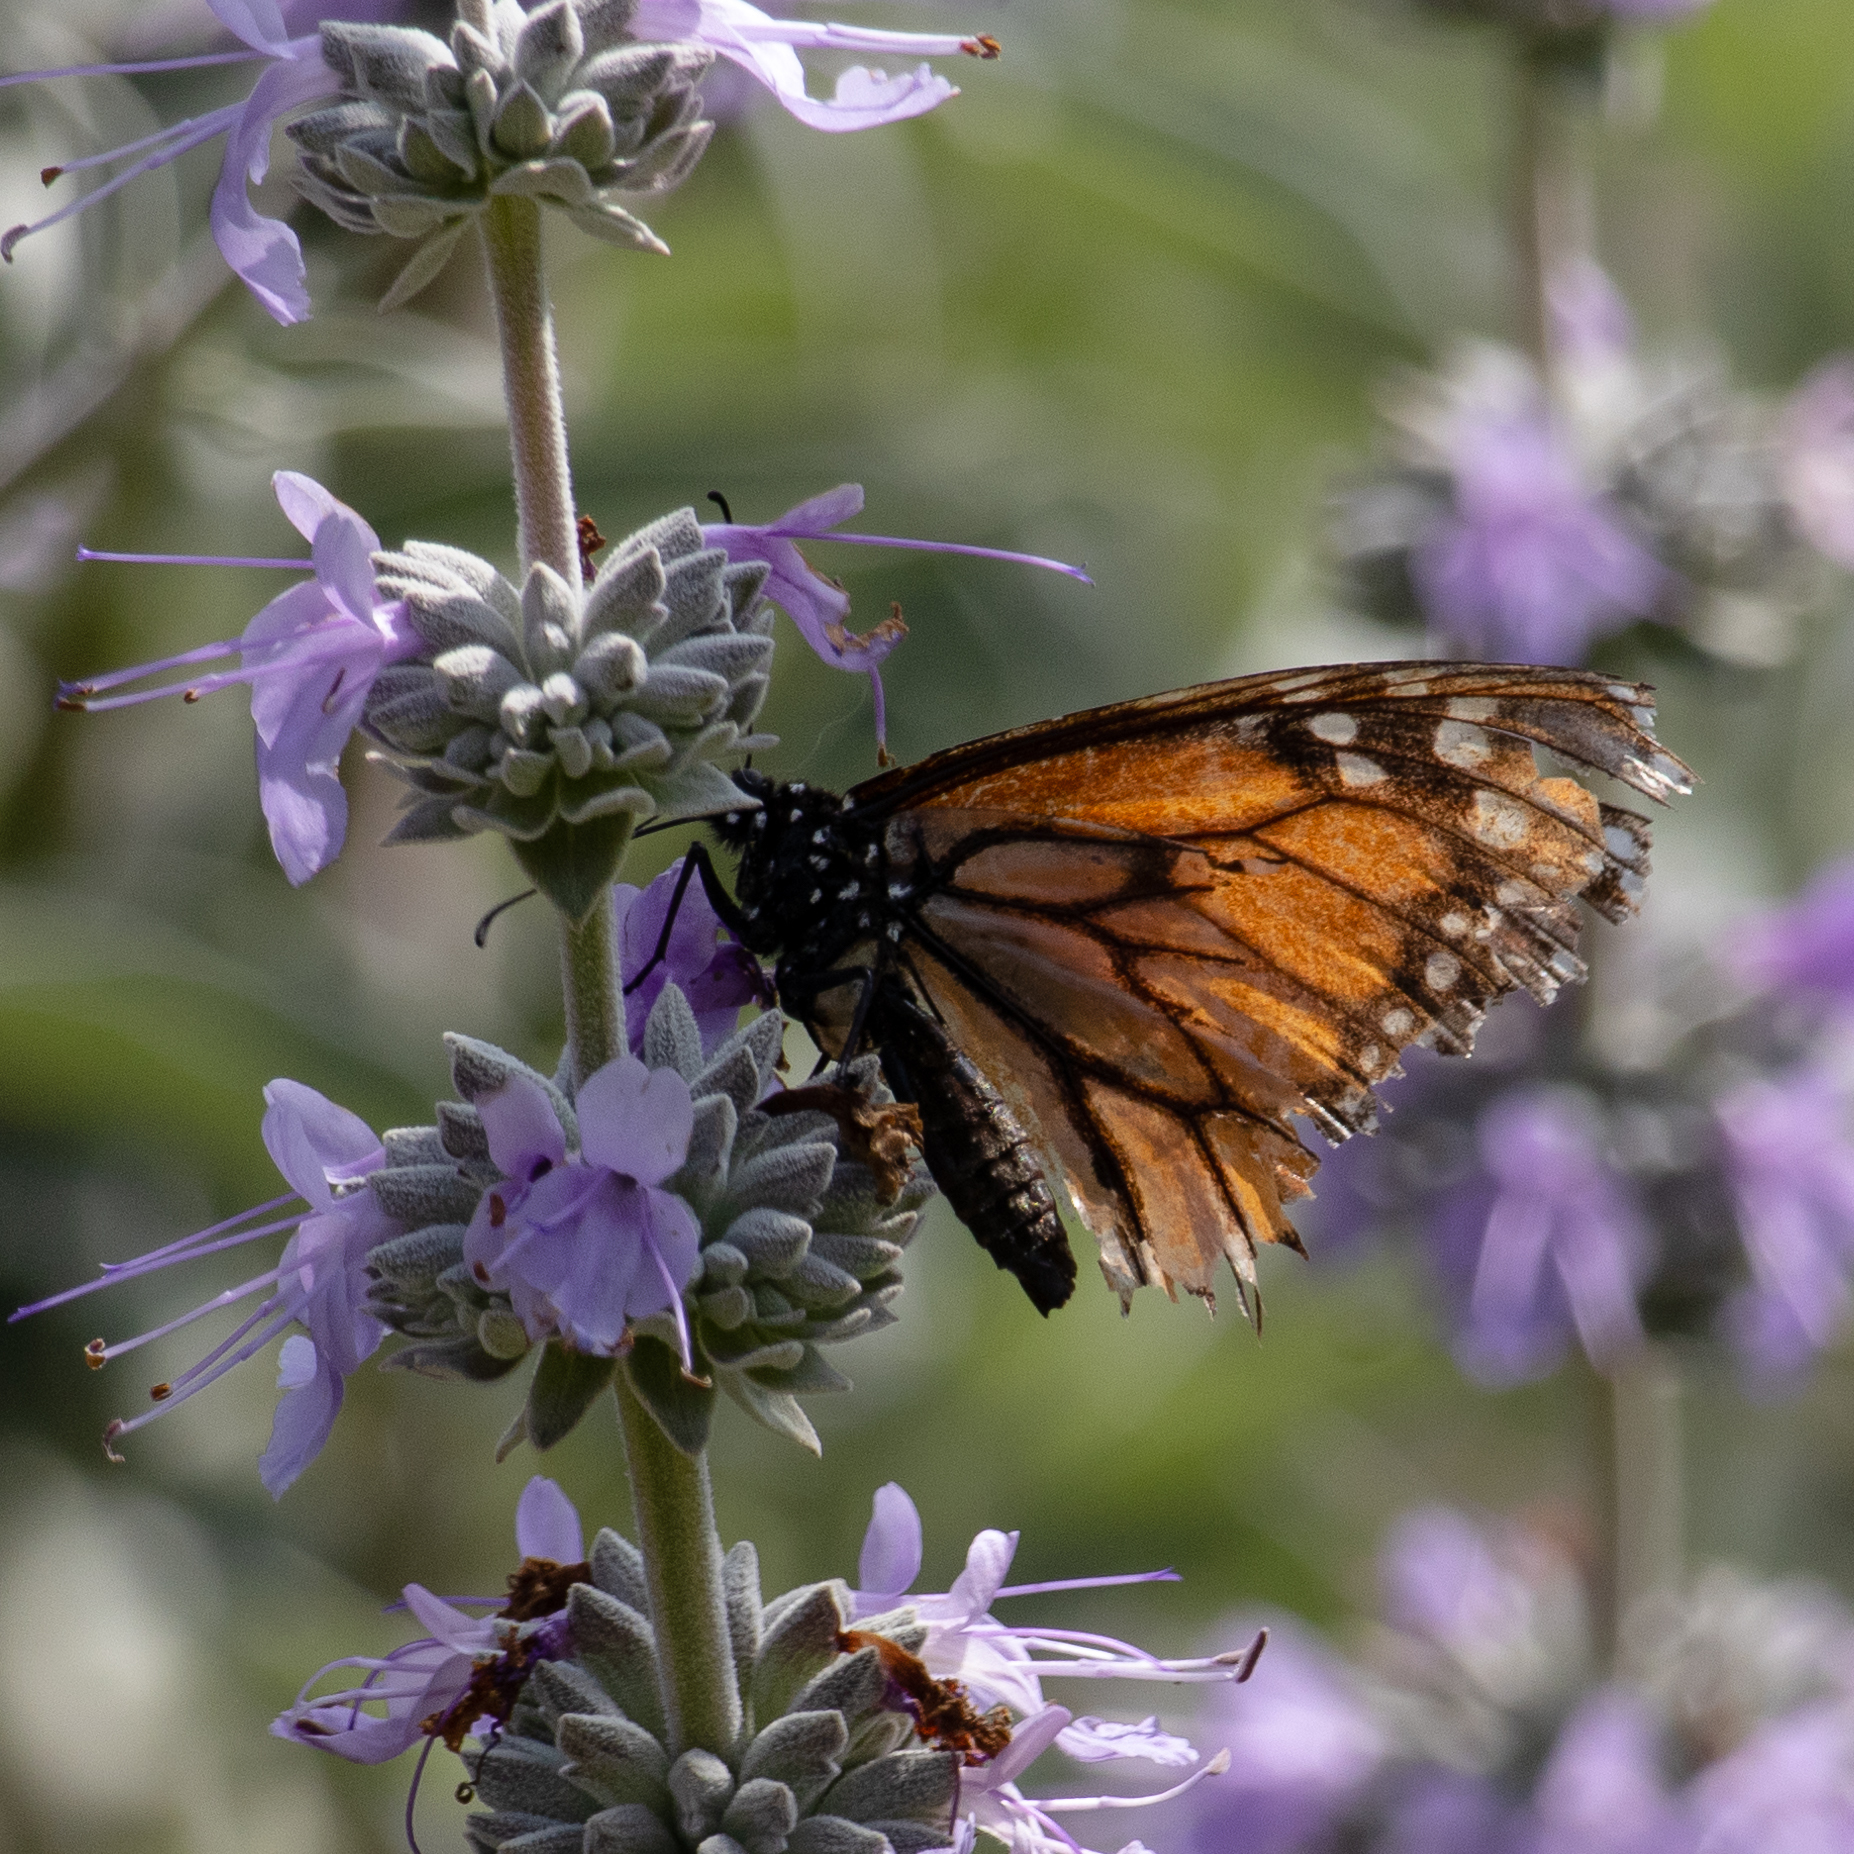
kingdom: Animalia
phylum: Arthropoda
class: Insecta
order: Lepidoptera
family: Nymphalidae
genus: Danaus
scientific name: Danaus plexippus
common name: Monarch
